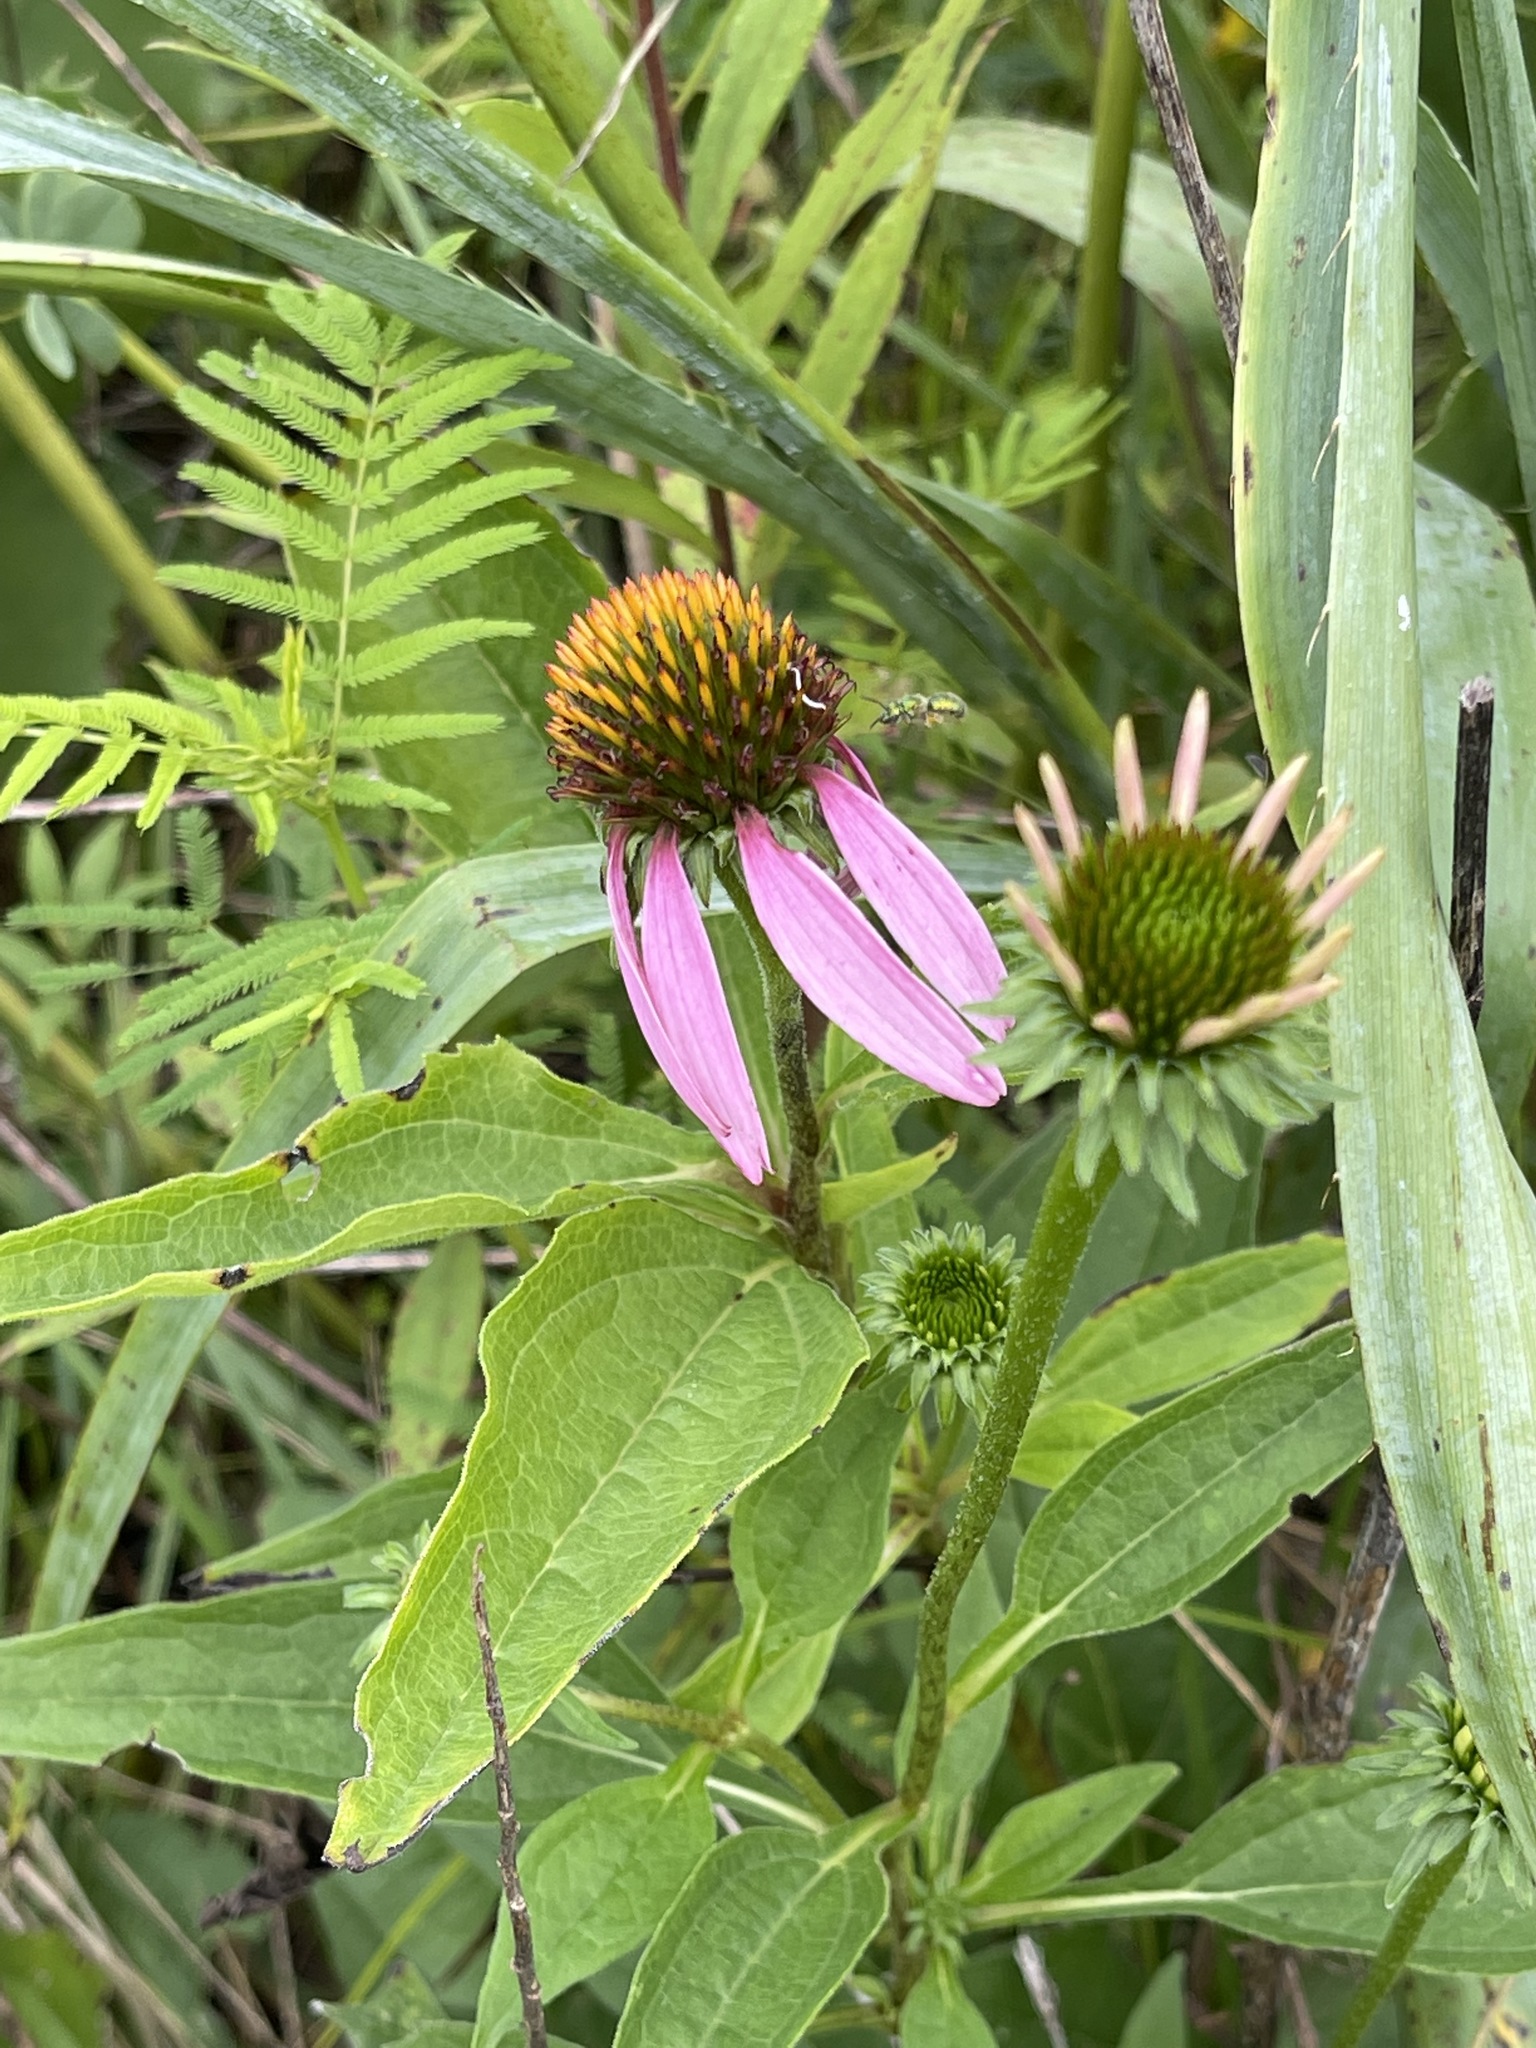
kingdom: Plantae
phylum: Tracheophyta
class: Magnoliopsida
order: Asterales
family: Asteraceae
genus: Echinacea
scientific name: Echinacea purpurea
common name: Broad-leaved purple coneflower
